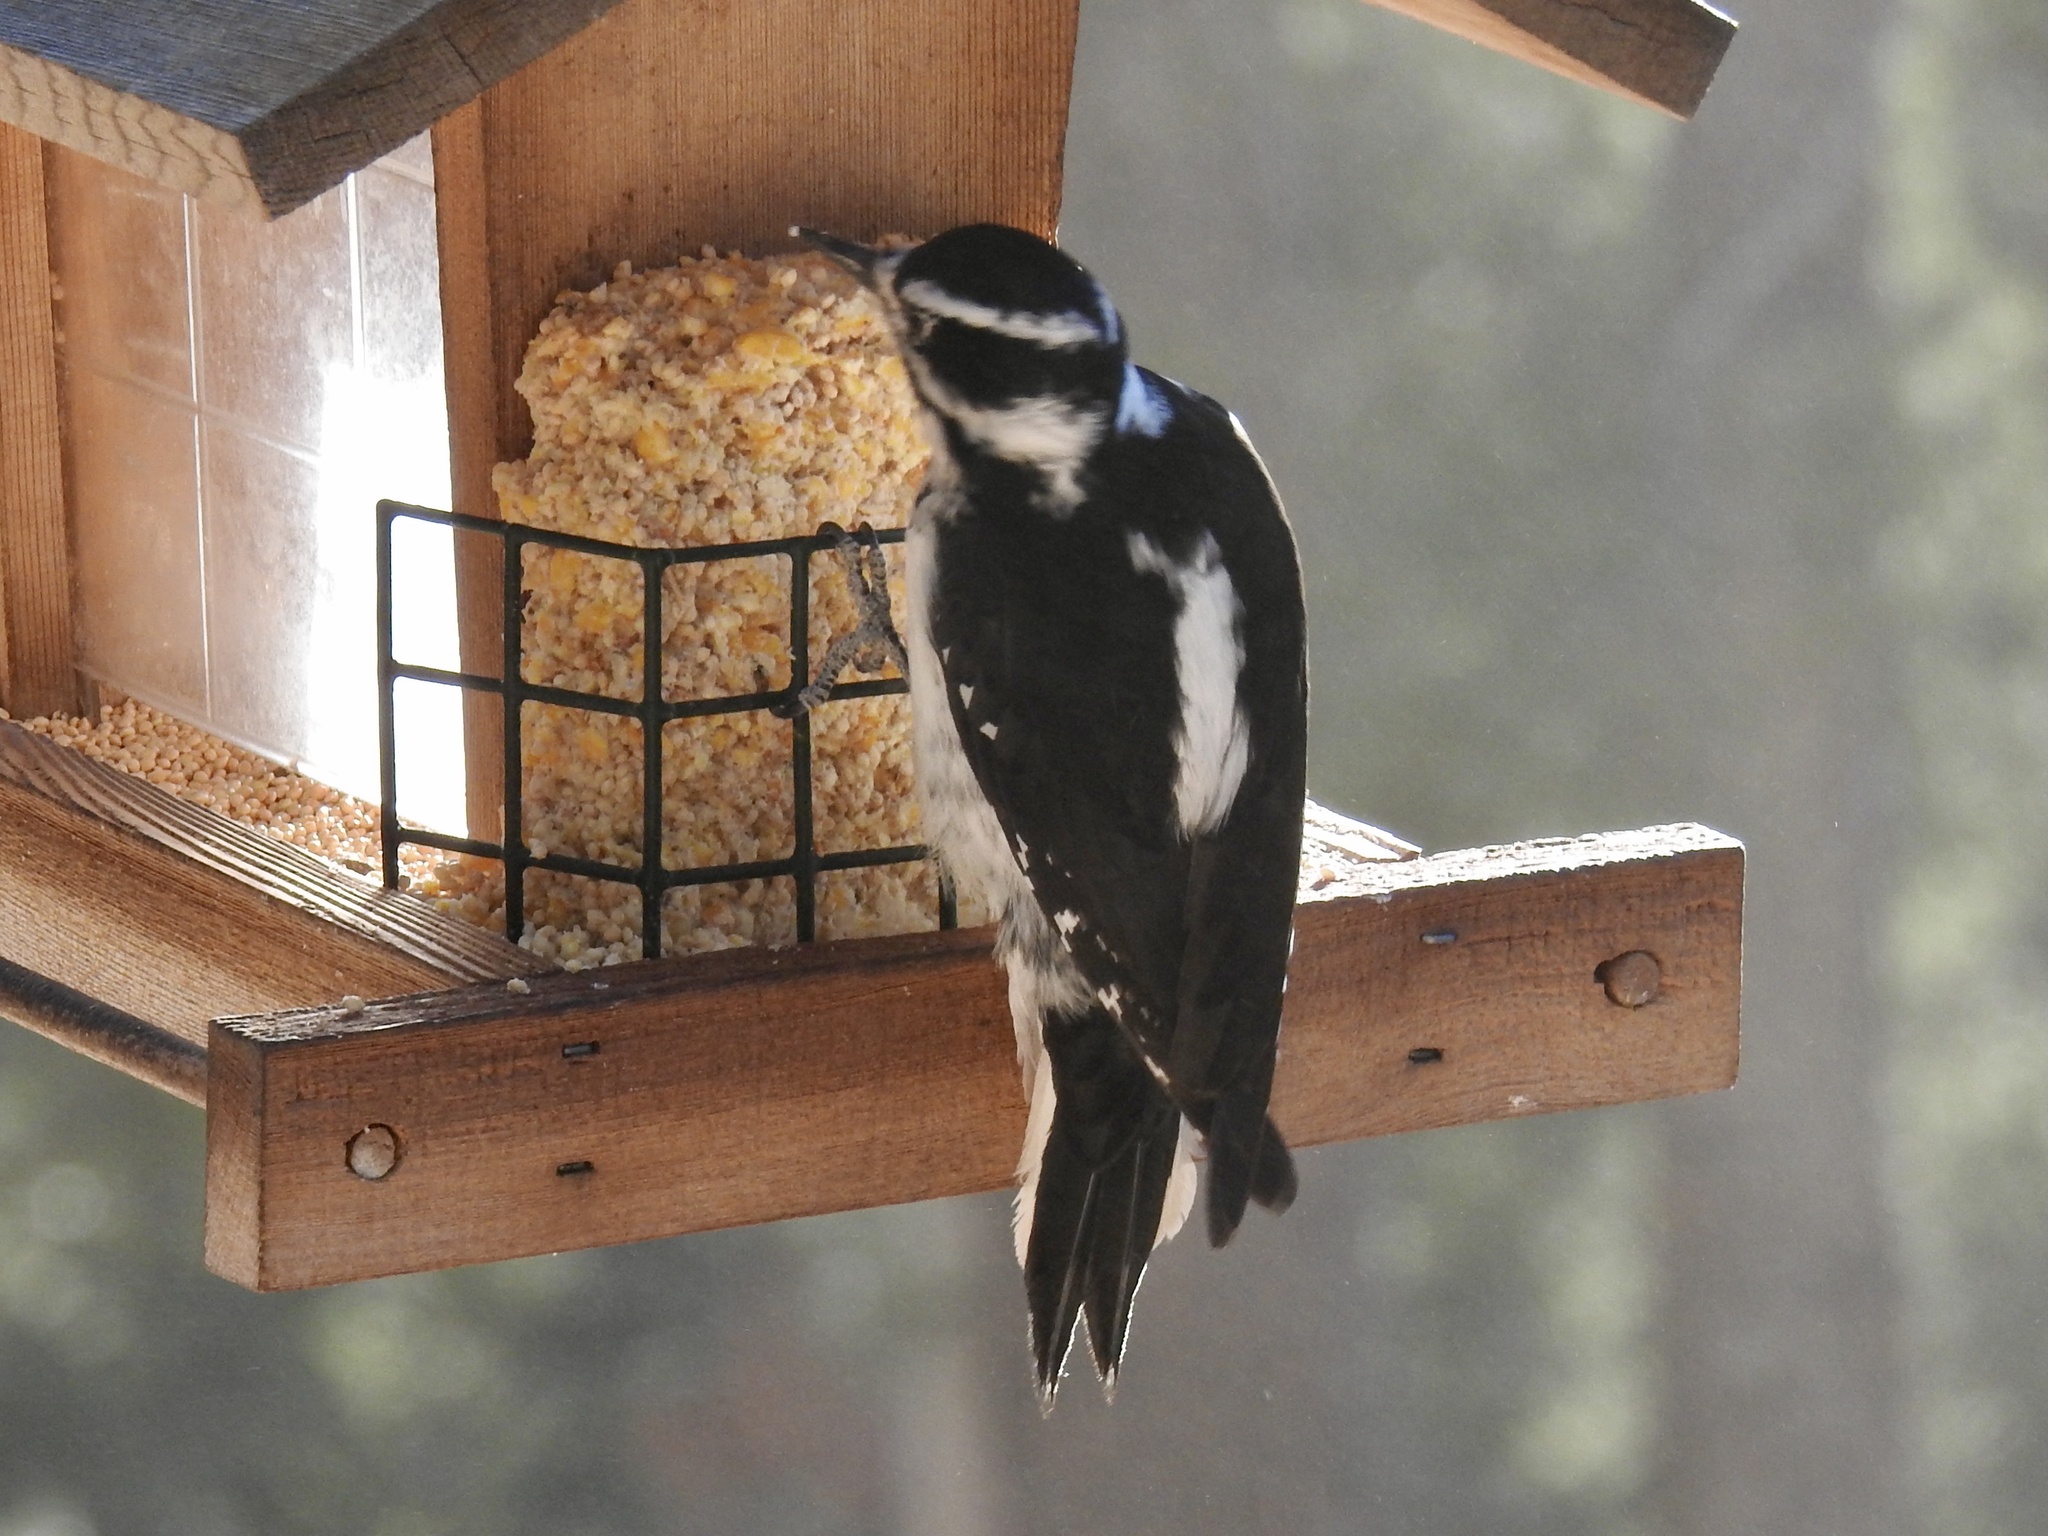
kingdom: Animalia
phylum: Chordata
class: Aves
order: Piciformes
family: Picidae
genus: Leuconotopicus
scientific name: Leuconotopicus villosus
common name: Hairy woodpecker
